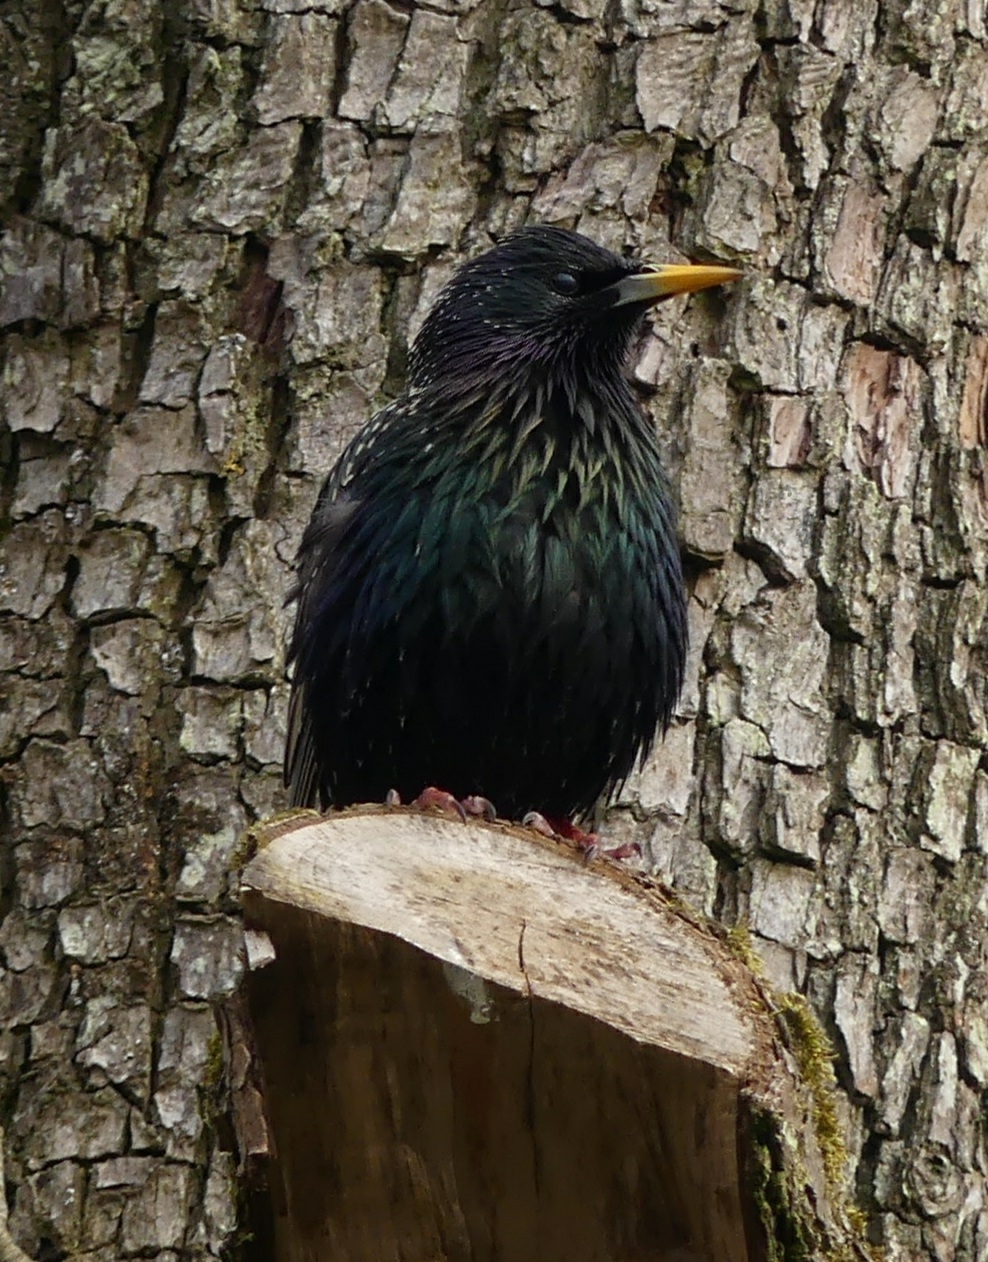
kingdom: Animalia
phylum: Chordata
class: Aves
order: Passeriformes
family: Sturnidae
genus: Sturnus
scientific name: Sturnus vulgaris
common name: Common starling
